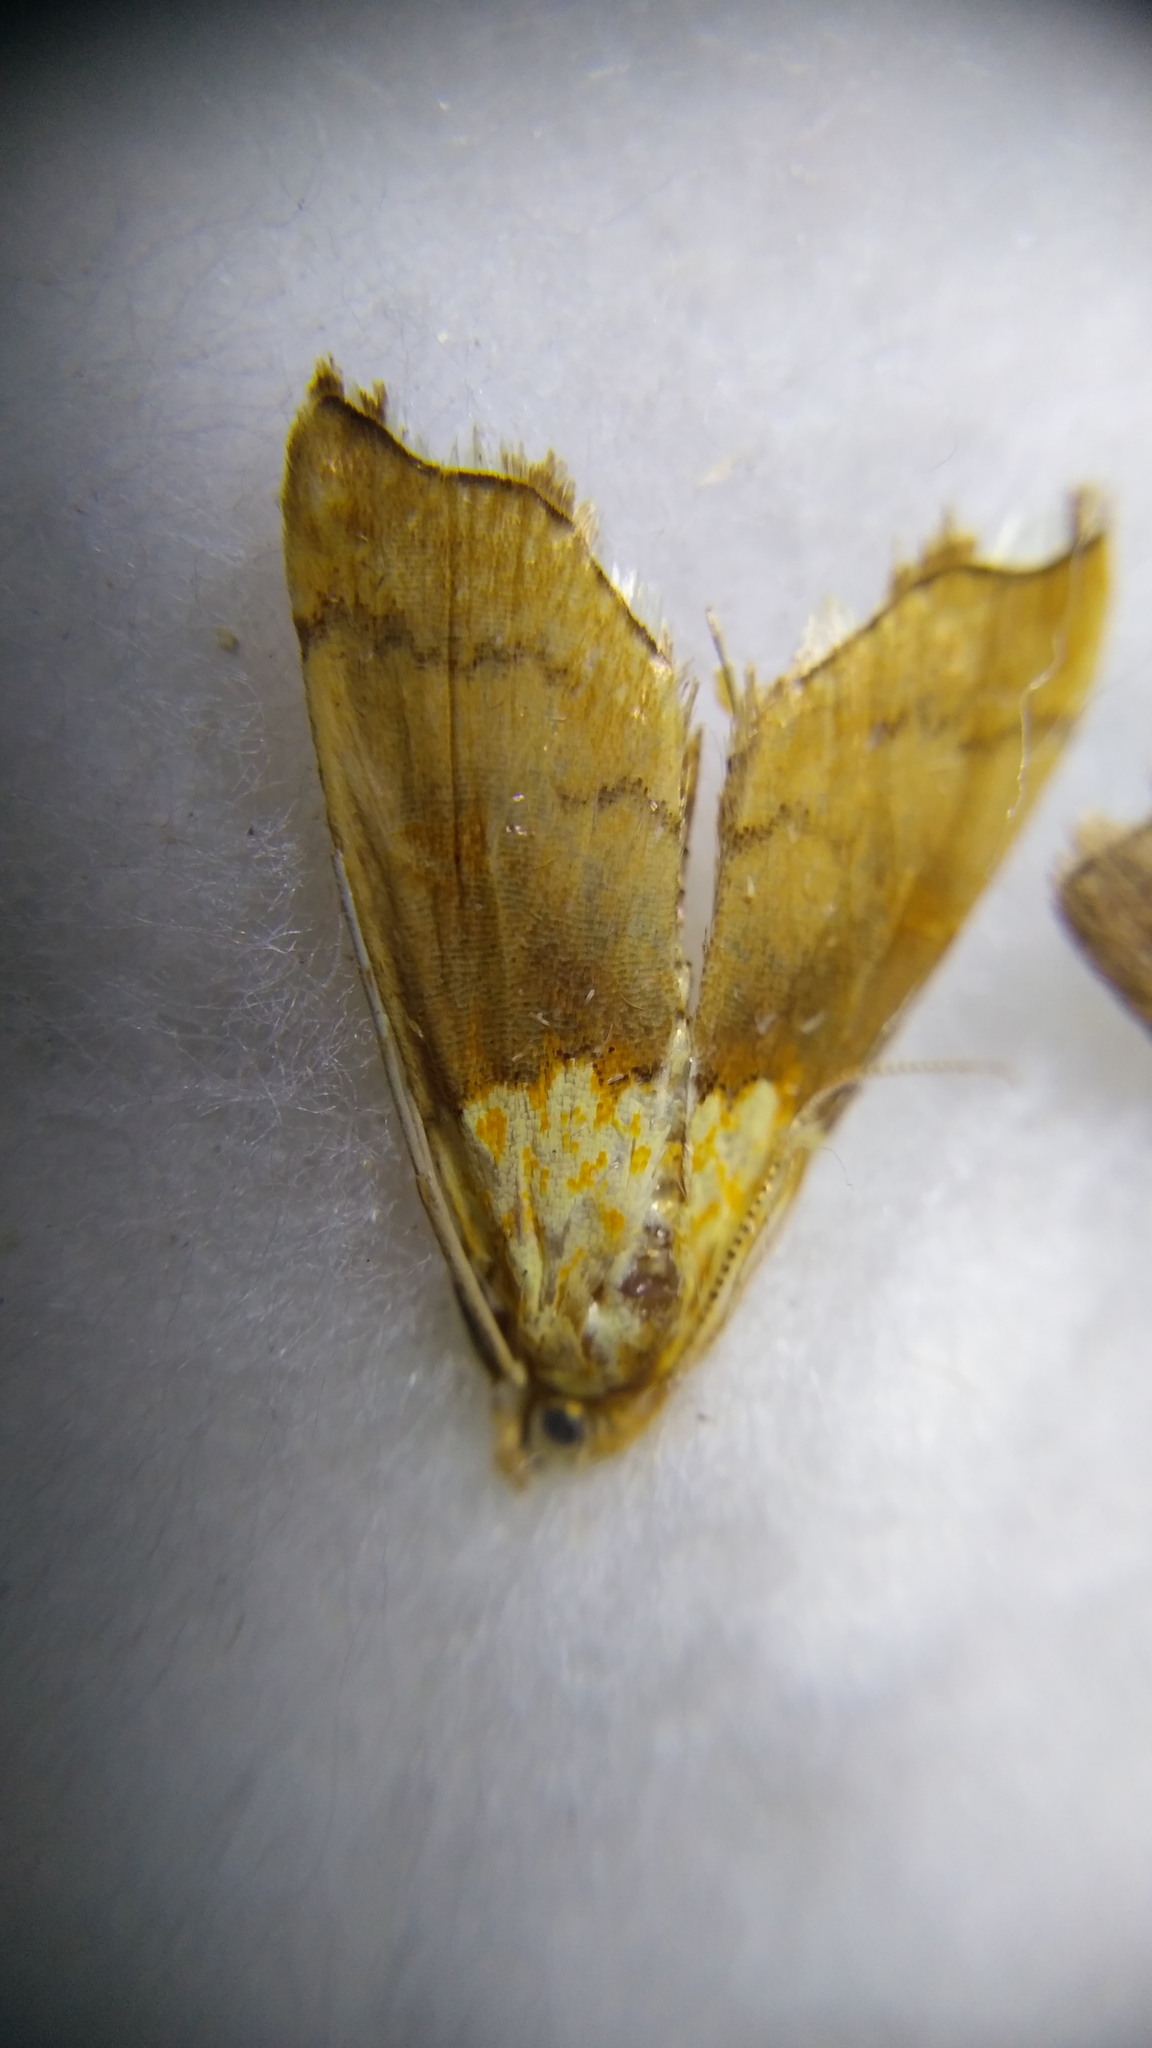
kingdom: Animalia
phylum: Arthropoda
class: Insecta
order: Lepidoptera
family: Crambidae
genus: Agrotera
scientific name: Agrotera nemoralis
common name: Beautiful pearl
